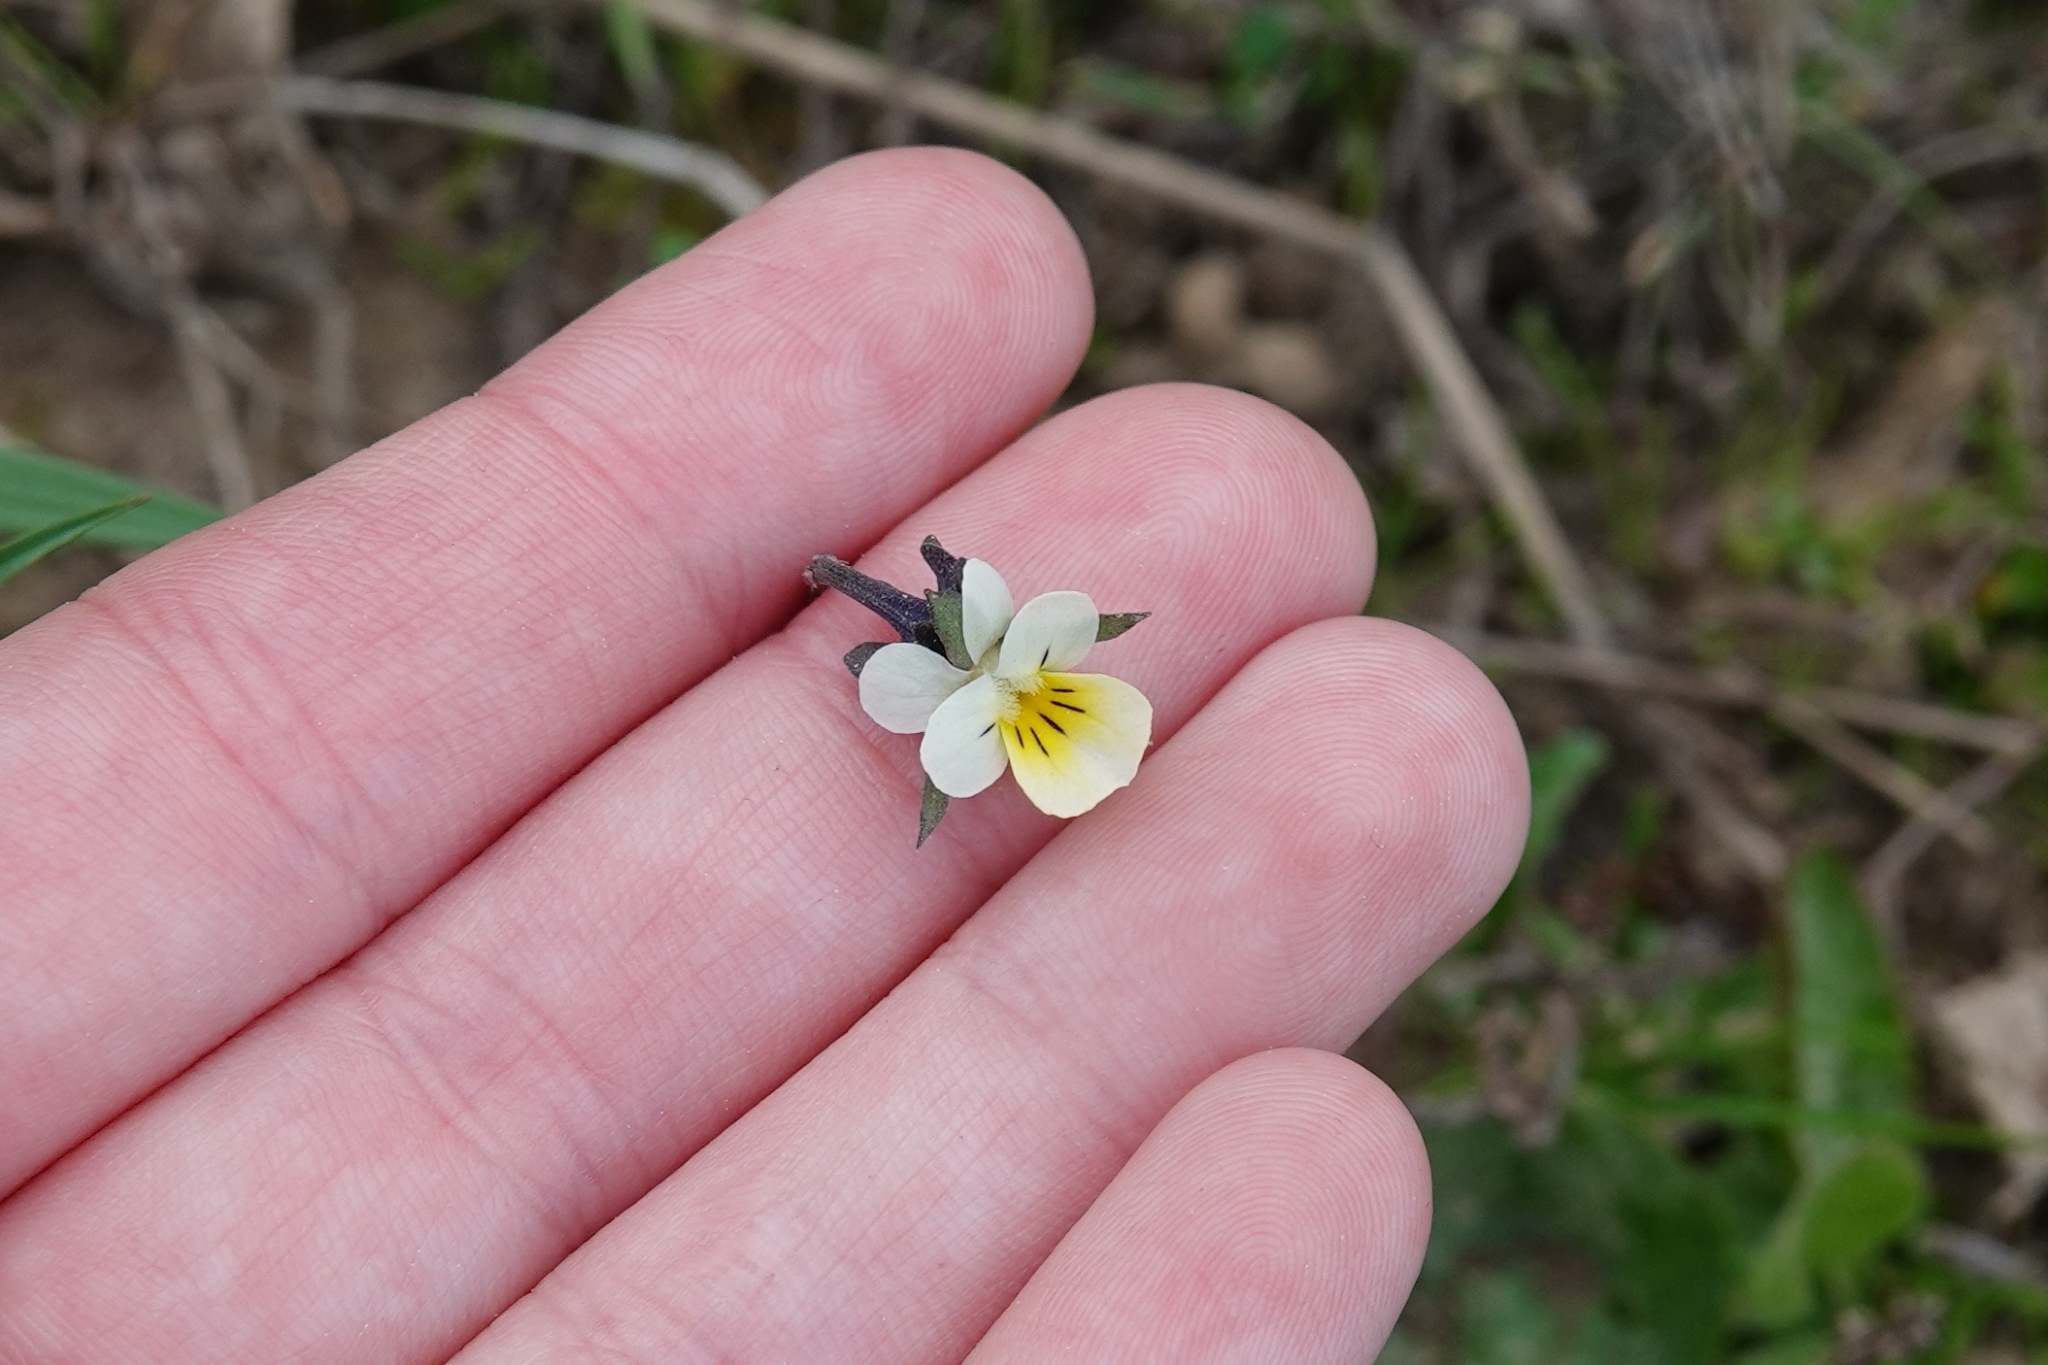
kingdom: Plantae
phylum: Tracheophyta
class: Magnoliopsida
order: Malpighiales
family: Violaceae
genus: Viola
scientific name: Viola arvensis
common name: Field pansy
